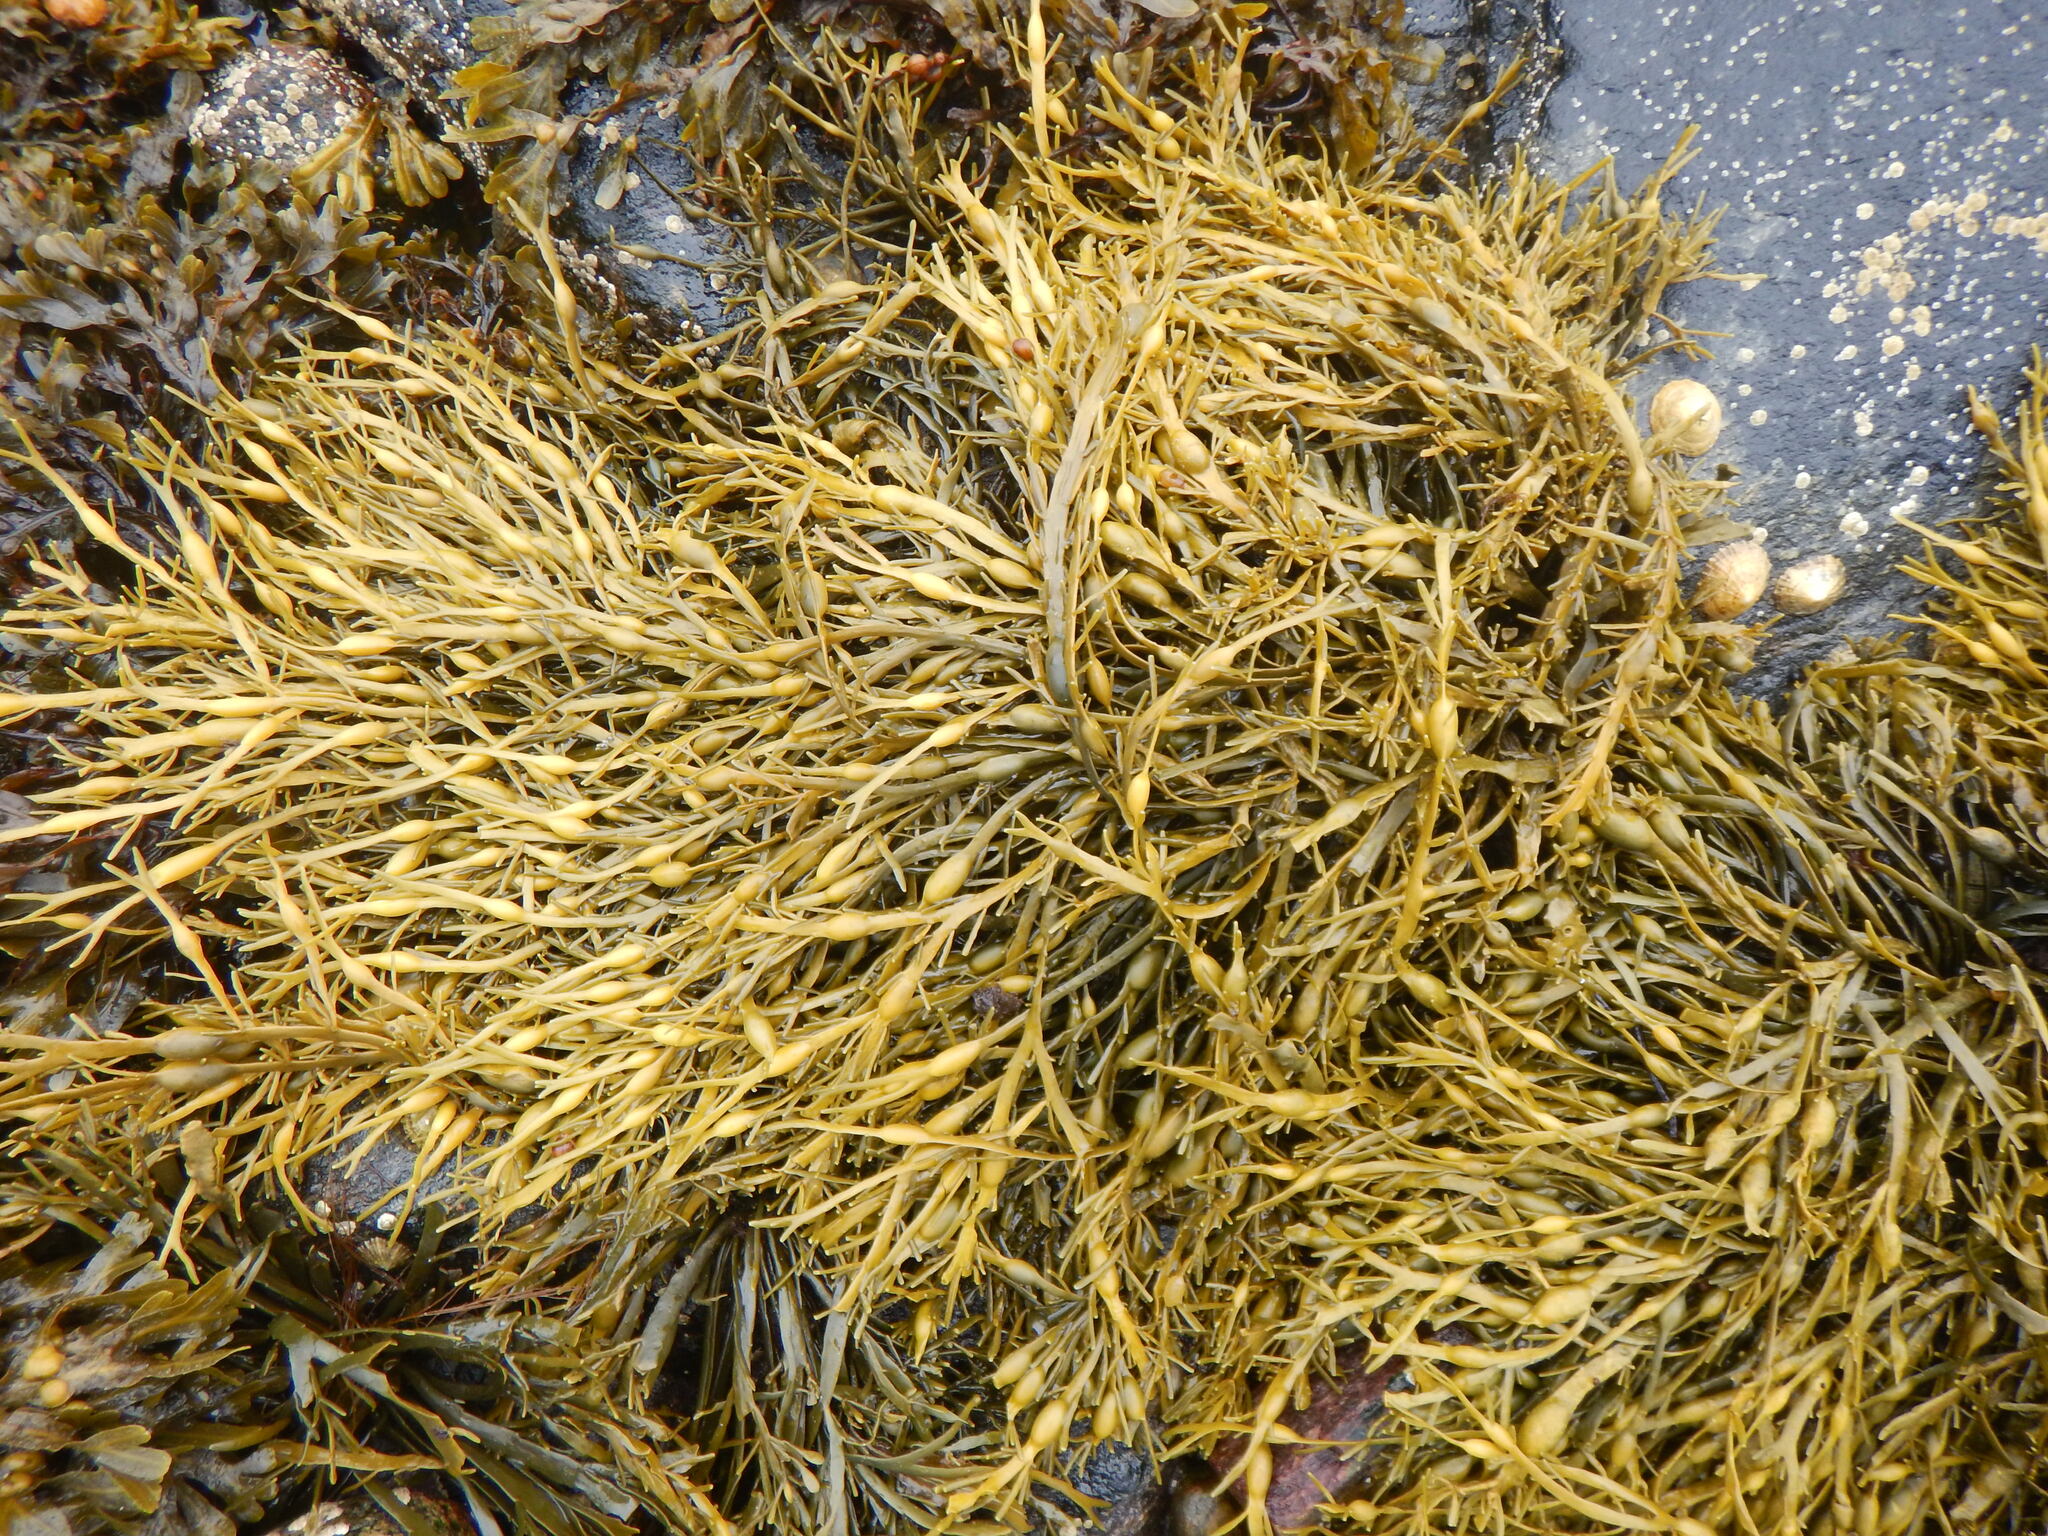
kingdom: Chromista
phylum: Ochrophyta
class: Phaeophyceae
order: Fucales
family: Fucaceae
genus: Ascophyllum
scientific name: Ascophyllum nodosum
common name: Knotted wrack
